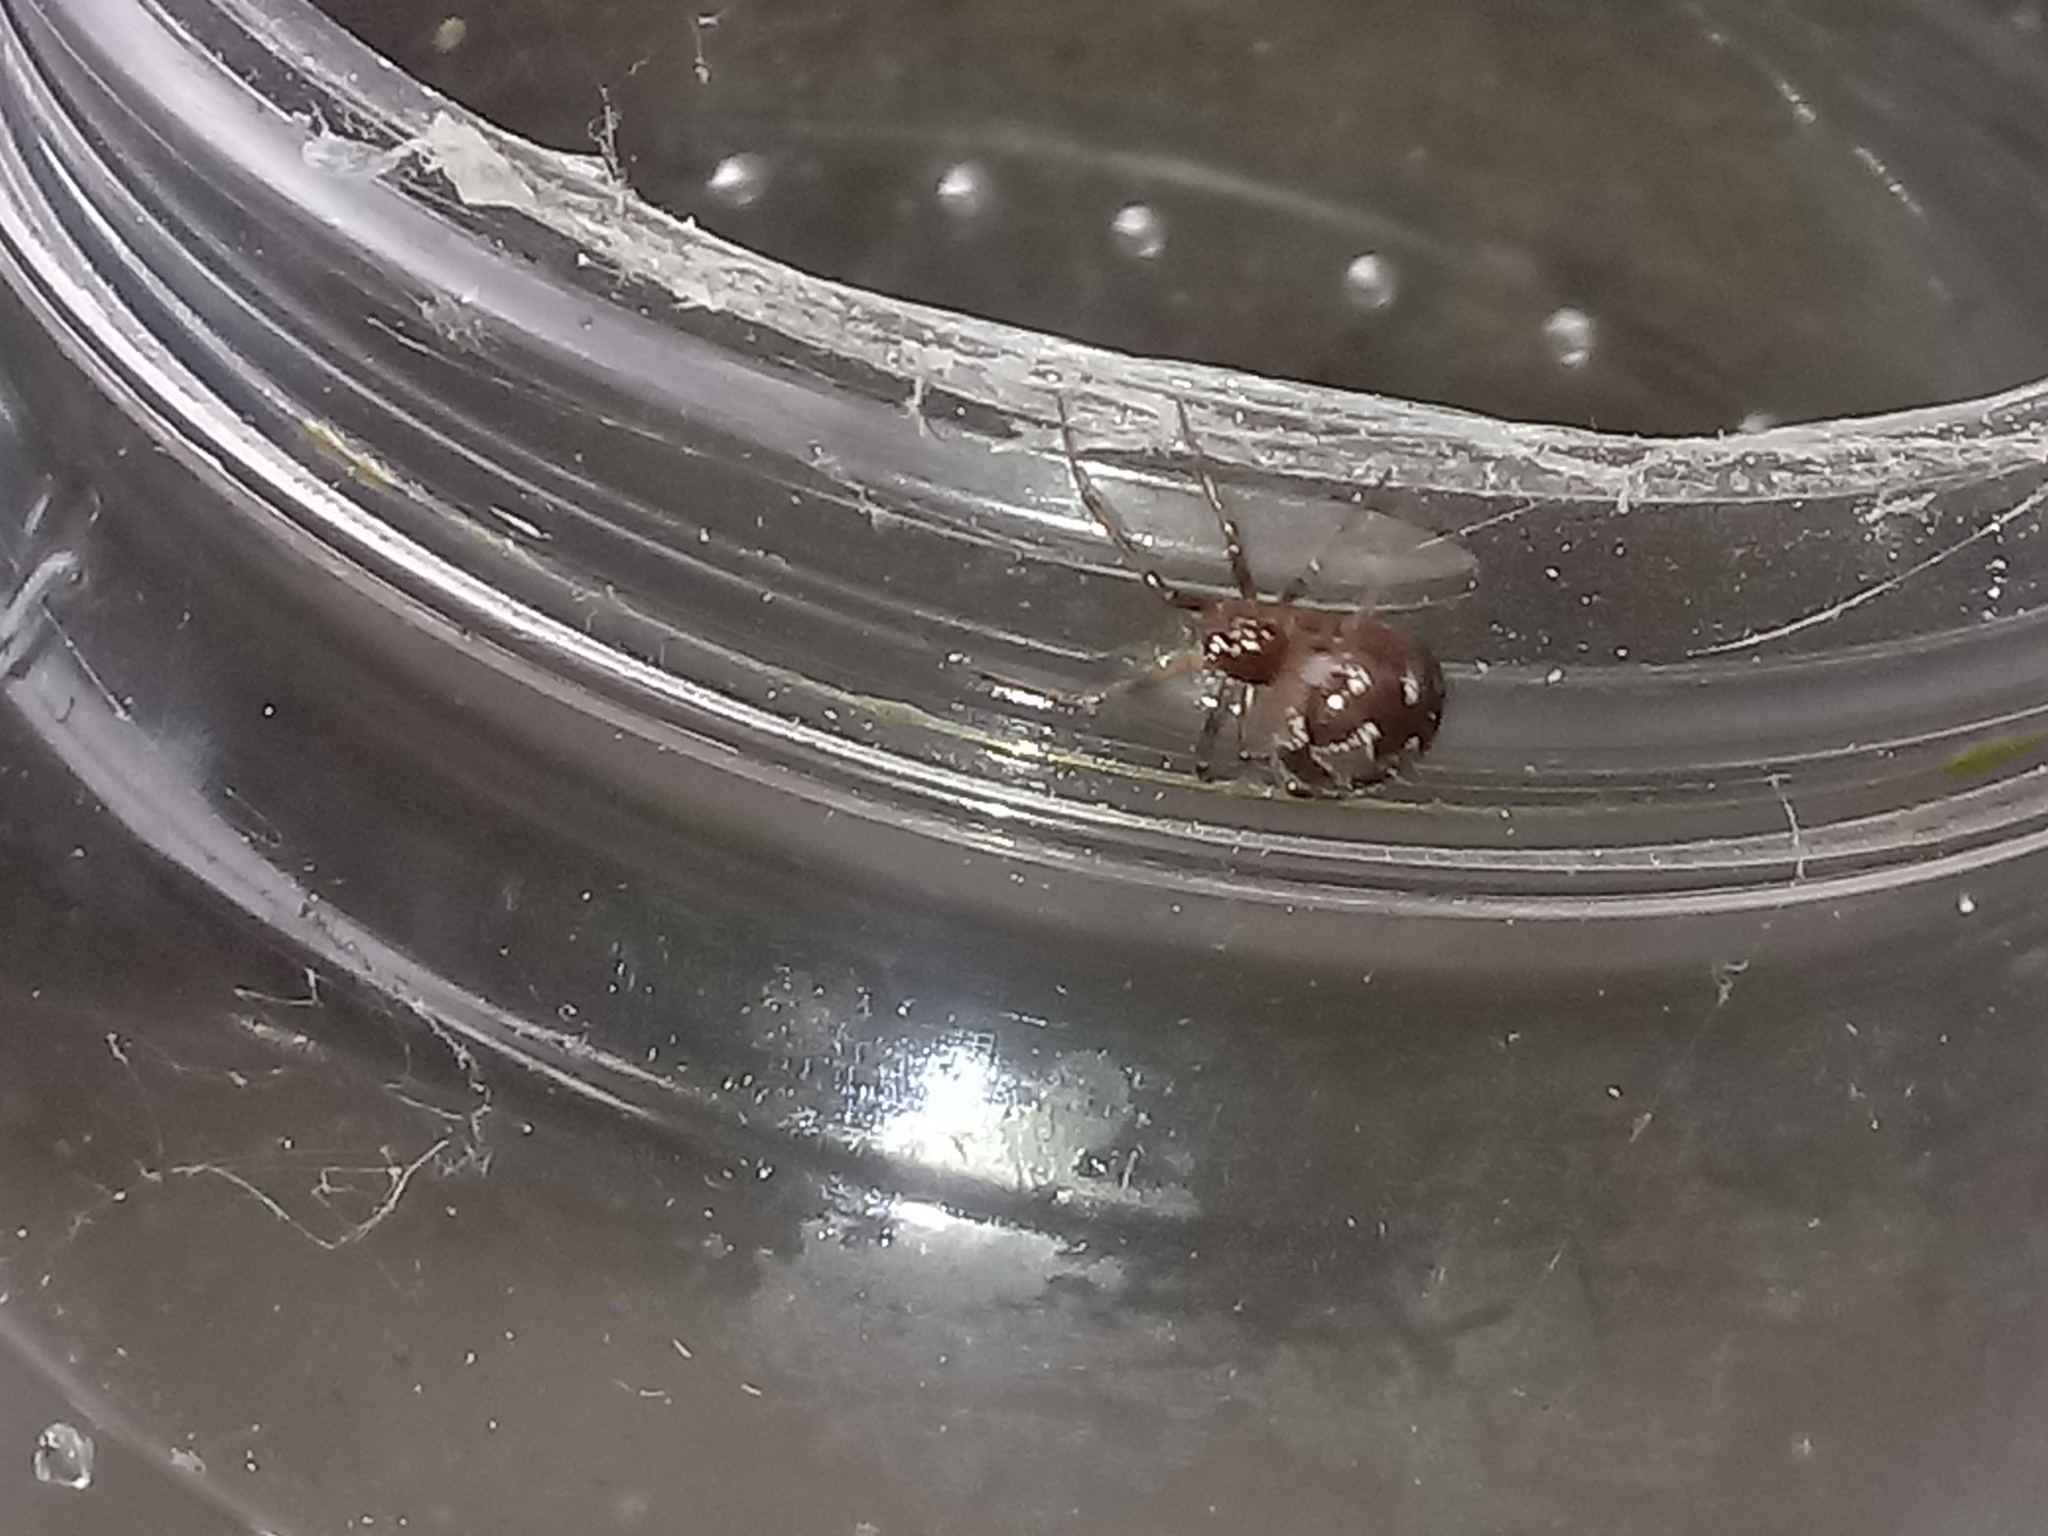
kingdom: Animalia
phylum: Arthropoda
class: Arachnida
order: Araneae
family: Theridiidae
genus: Steatoda
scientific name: Steatoda triangulosa
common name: Triangulate bud spider
